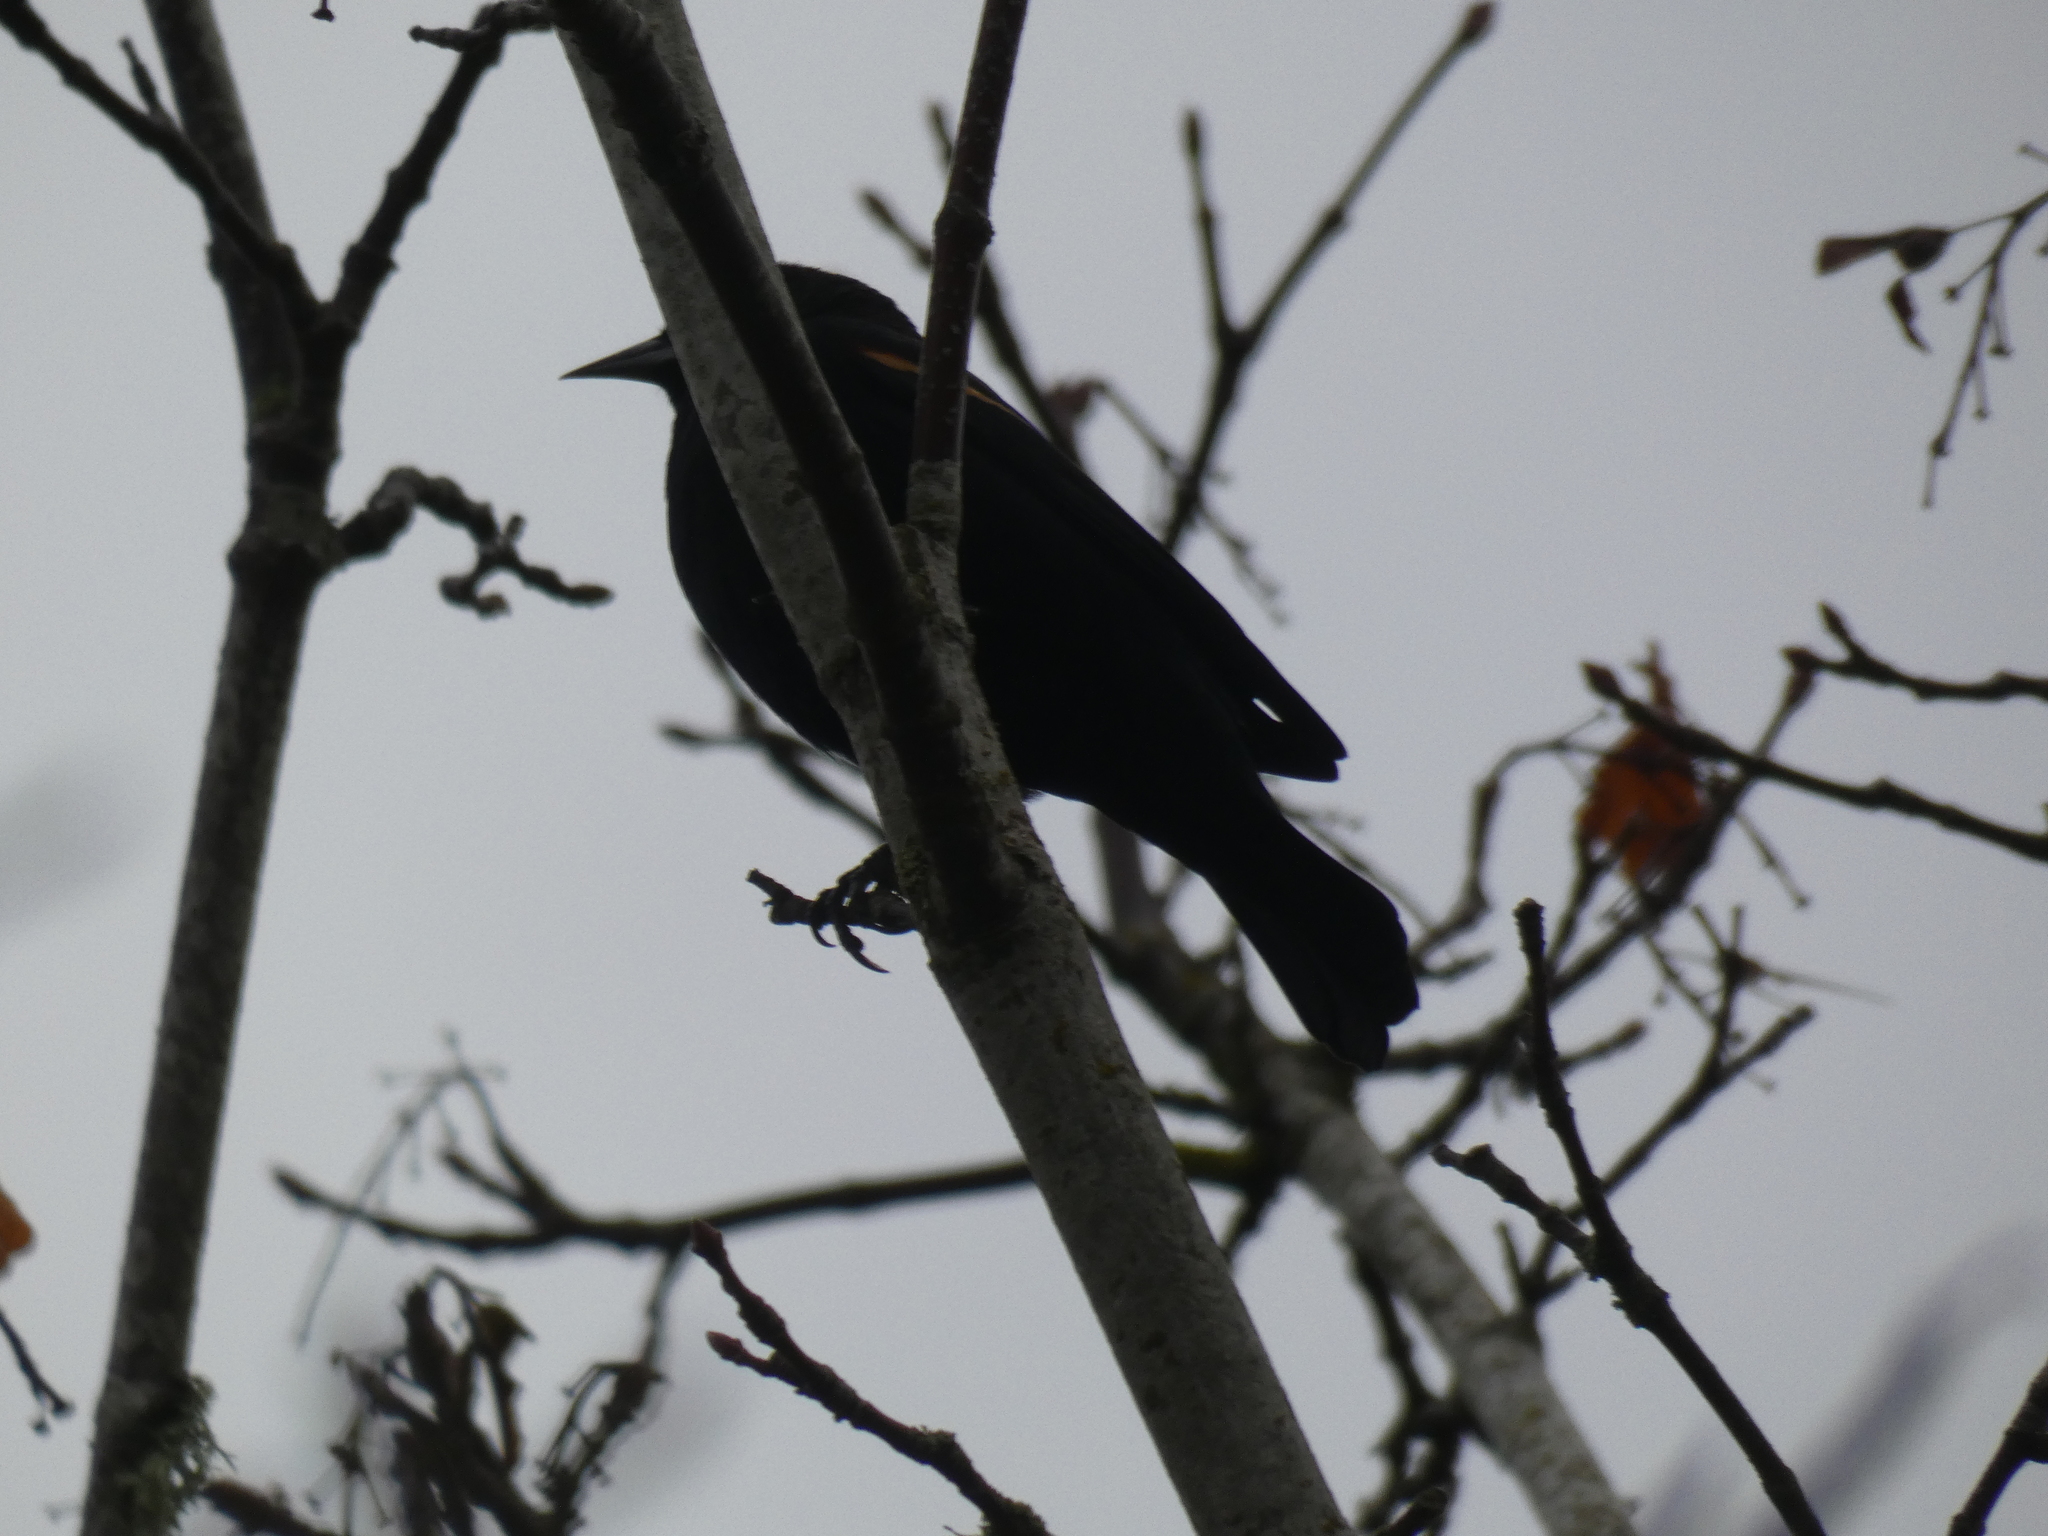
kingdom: Animalia
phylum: Chordata
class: Aves
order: Passeriformes
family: Icteridae
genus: Agelaius
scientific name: Agelaius phoeniceus
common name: Red-winged blackbird
